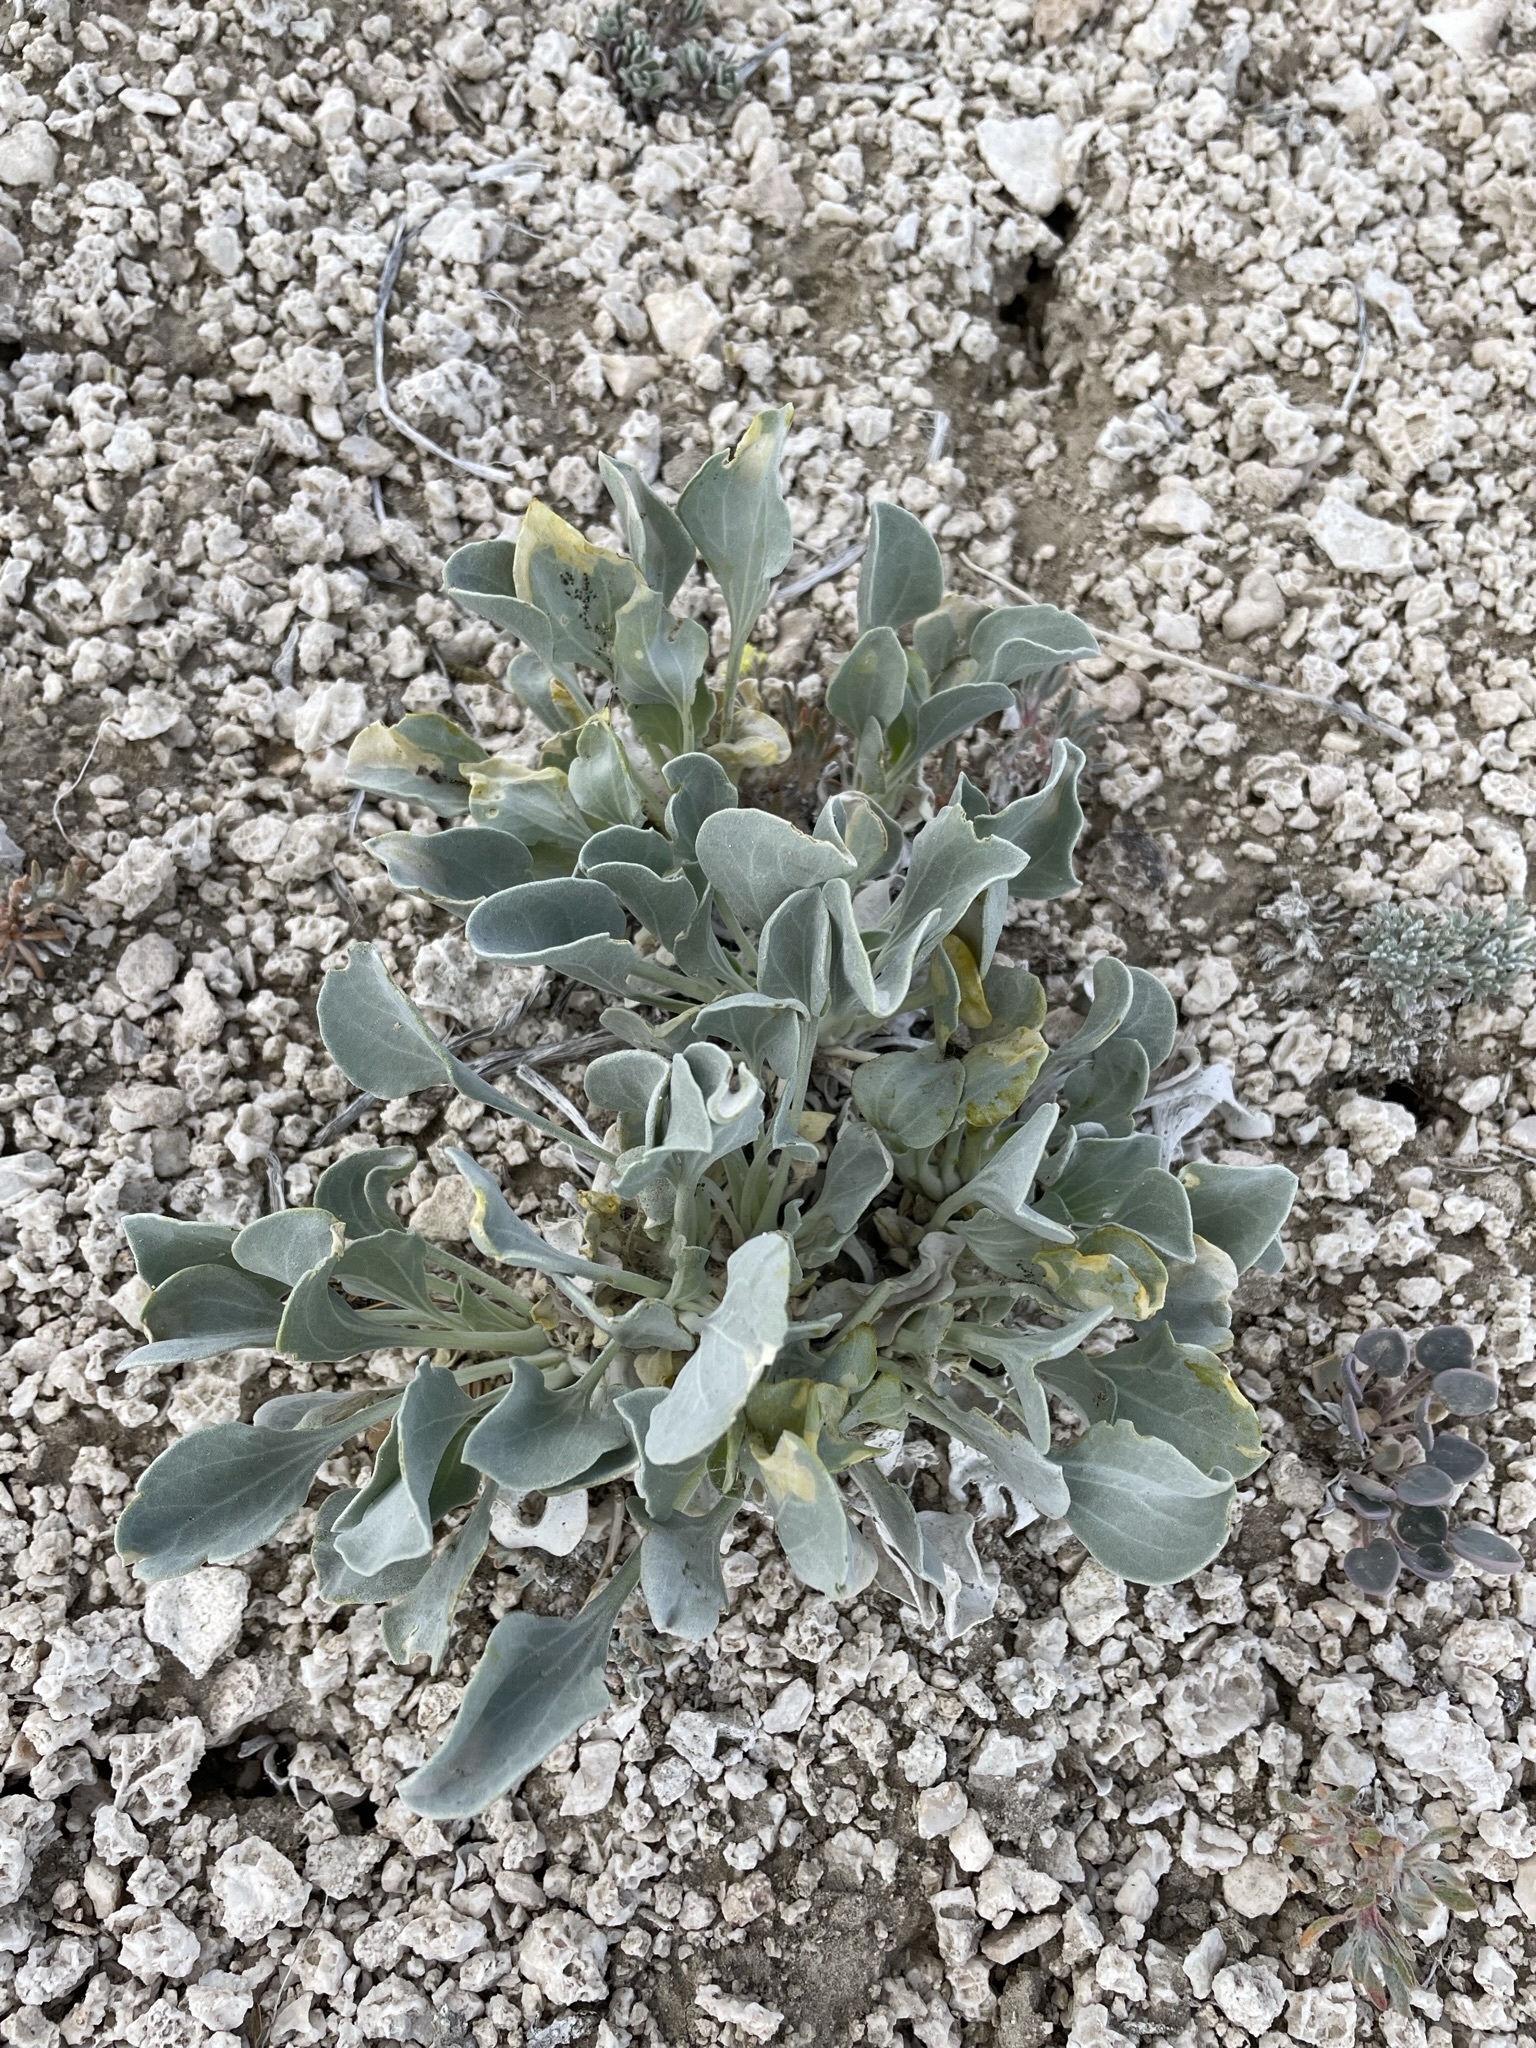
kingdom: Plantae
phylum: Tracheophyta
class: Magnoliopsida
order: Asterales
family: Asteraceae
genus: Enceliopsis
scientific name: Enceliopsis nudicaulis
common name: Naked-stem daisy
